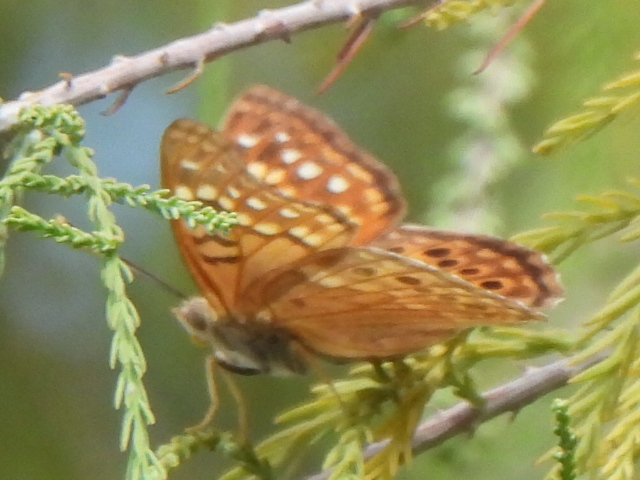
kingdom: Animalia
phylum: Arthropoda
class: Insecta
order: Lepidoptera
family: Nymphalidae
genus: Asterocampa
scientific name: Asterocampa clyton
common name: Tawny emperor
